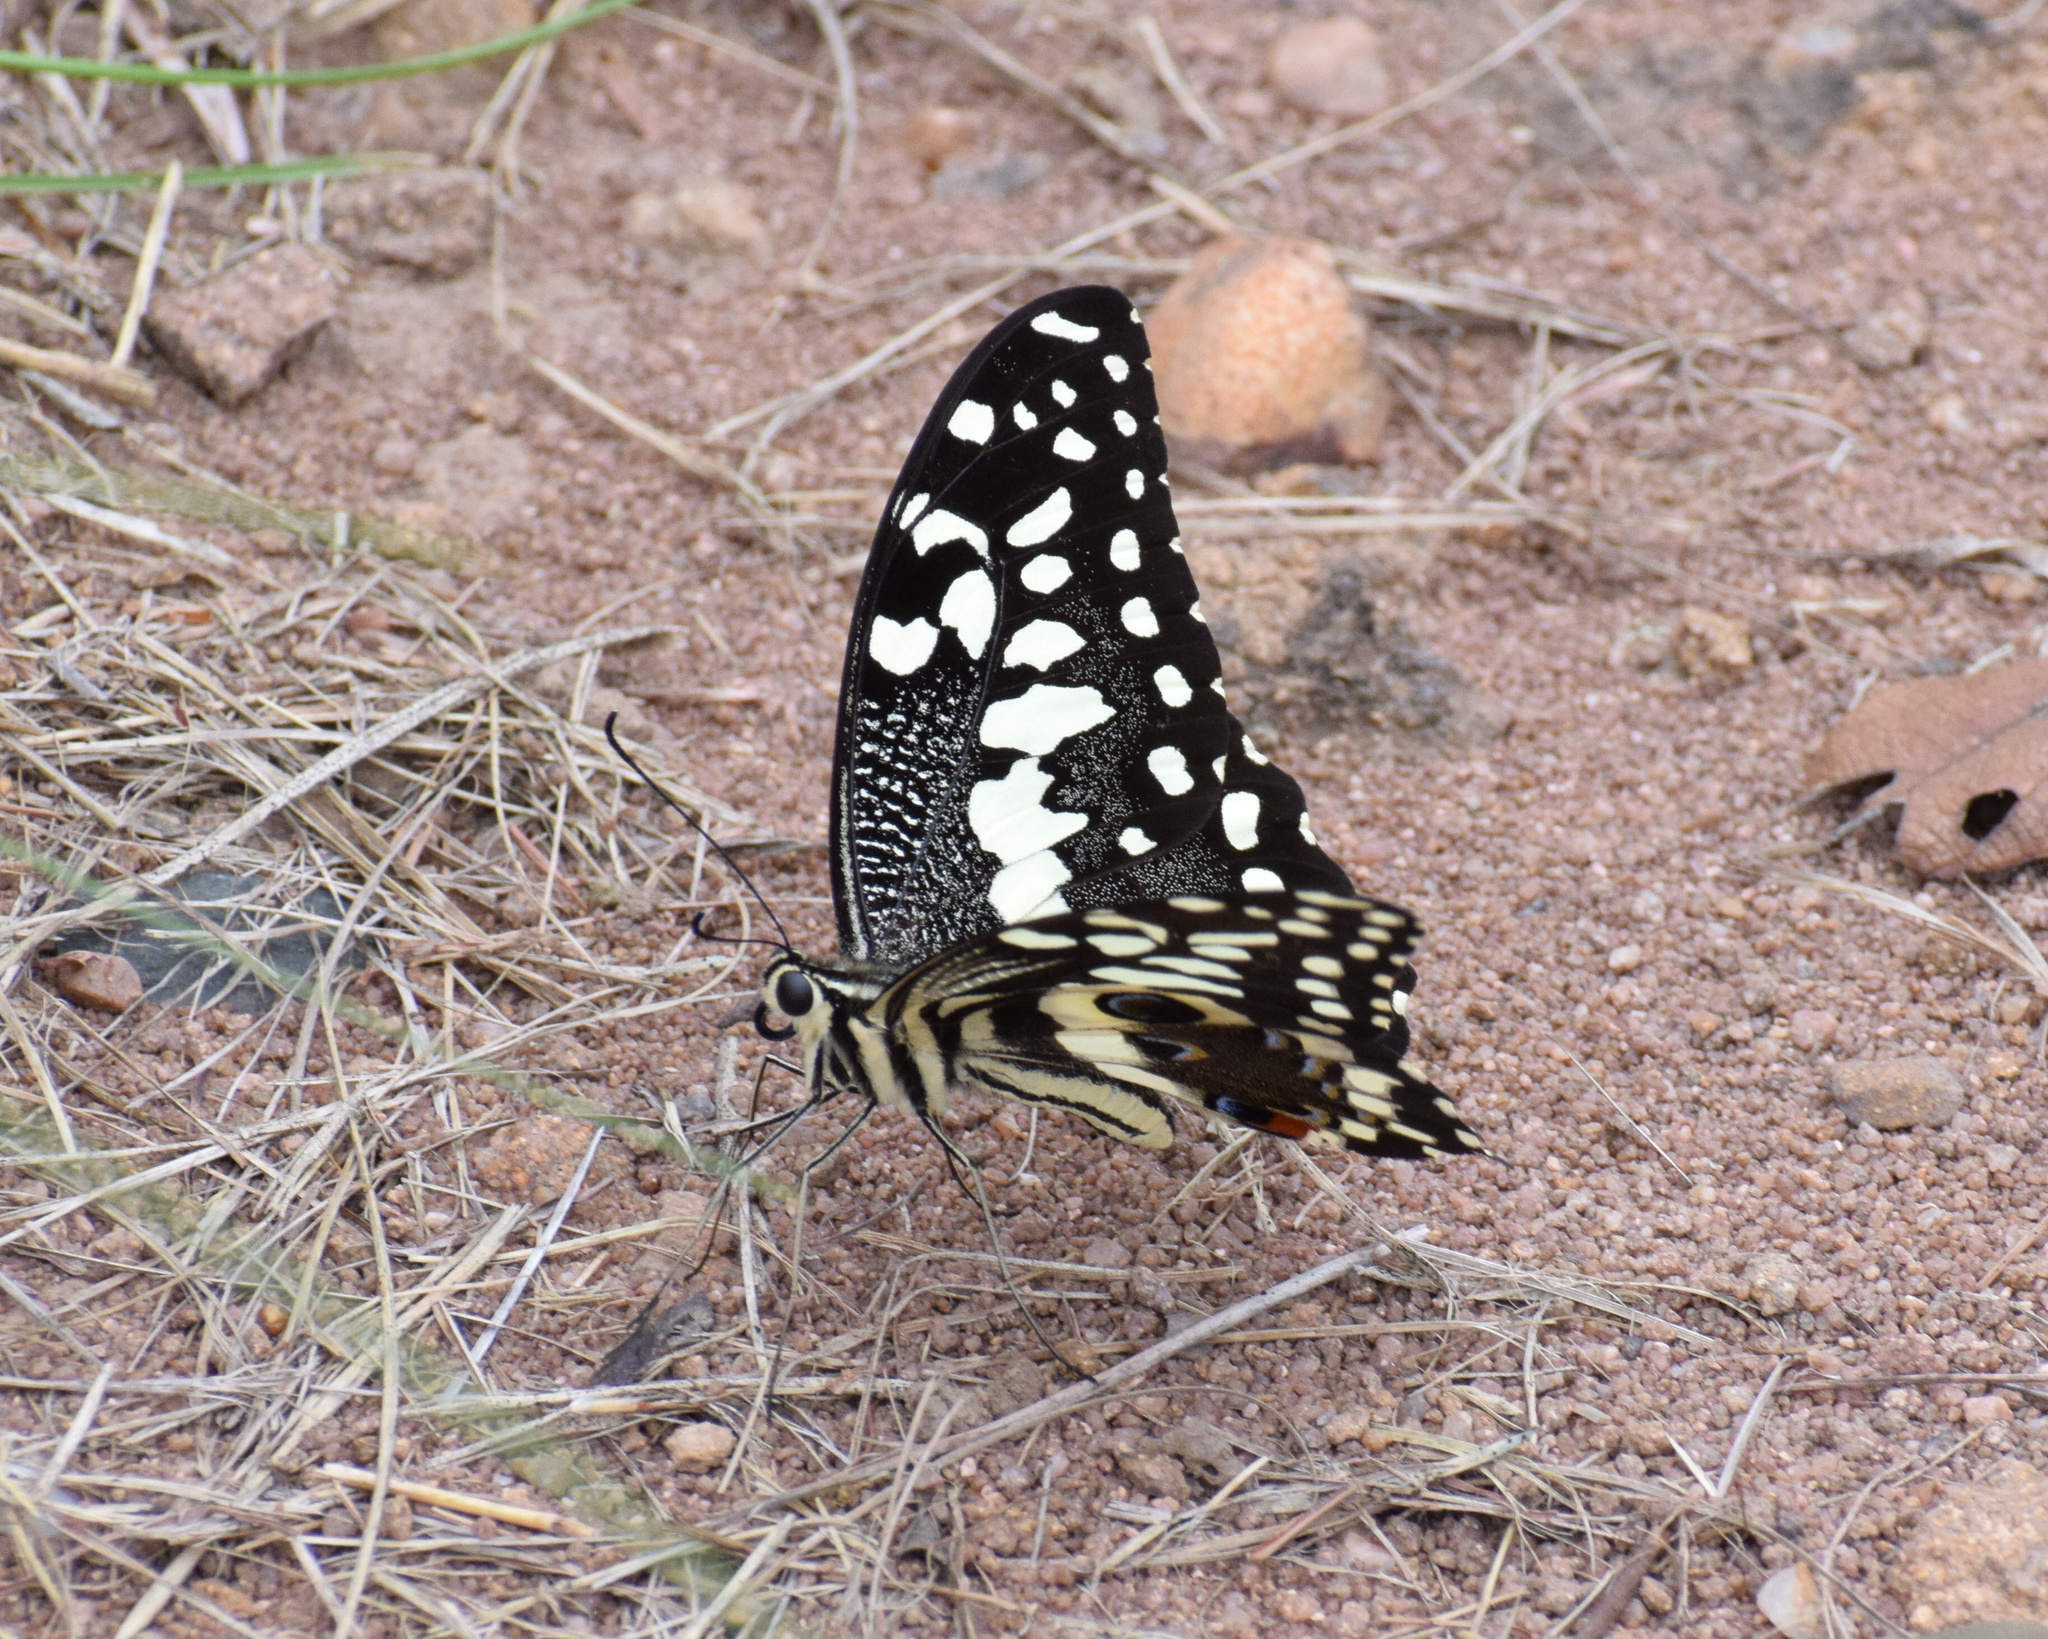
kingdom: Animalia
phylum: Arthropoda
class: Insecta
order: Lepidoptera
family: Papilionidae
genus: Papilio
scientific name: Papilio demodocus
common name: Christmas butterfly
